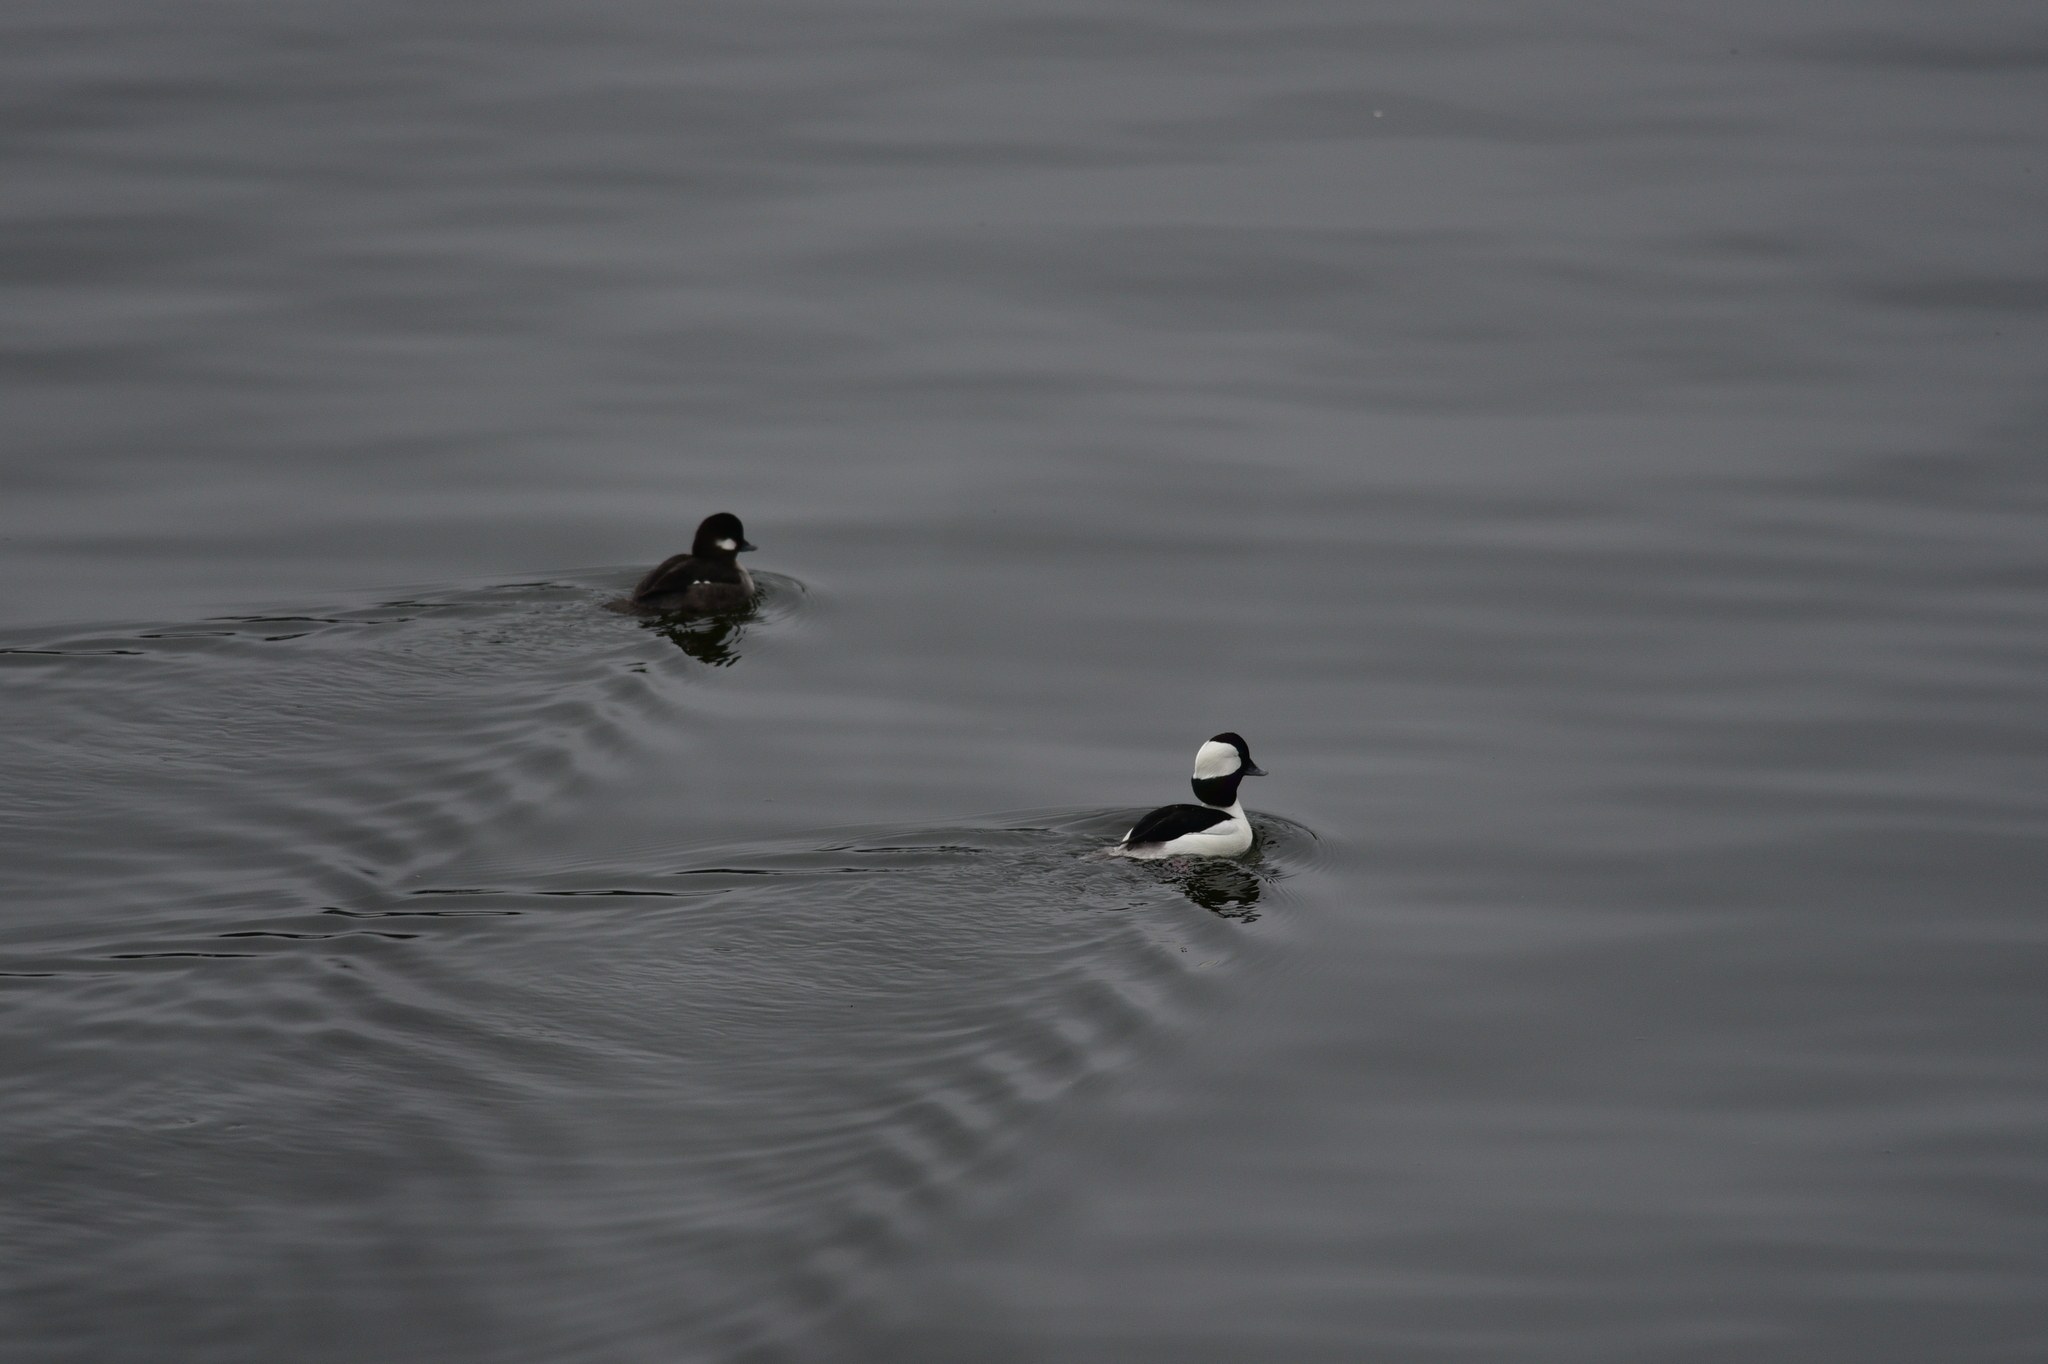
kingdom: Animalia
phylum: Chordata
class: Aves
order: Anseriformes
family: Anatidae
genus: Bucephala
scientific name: Bucephala albeola
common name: Bufflehead
